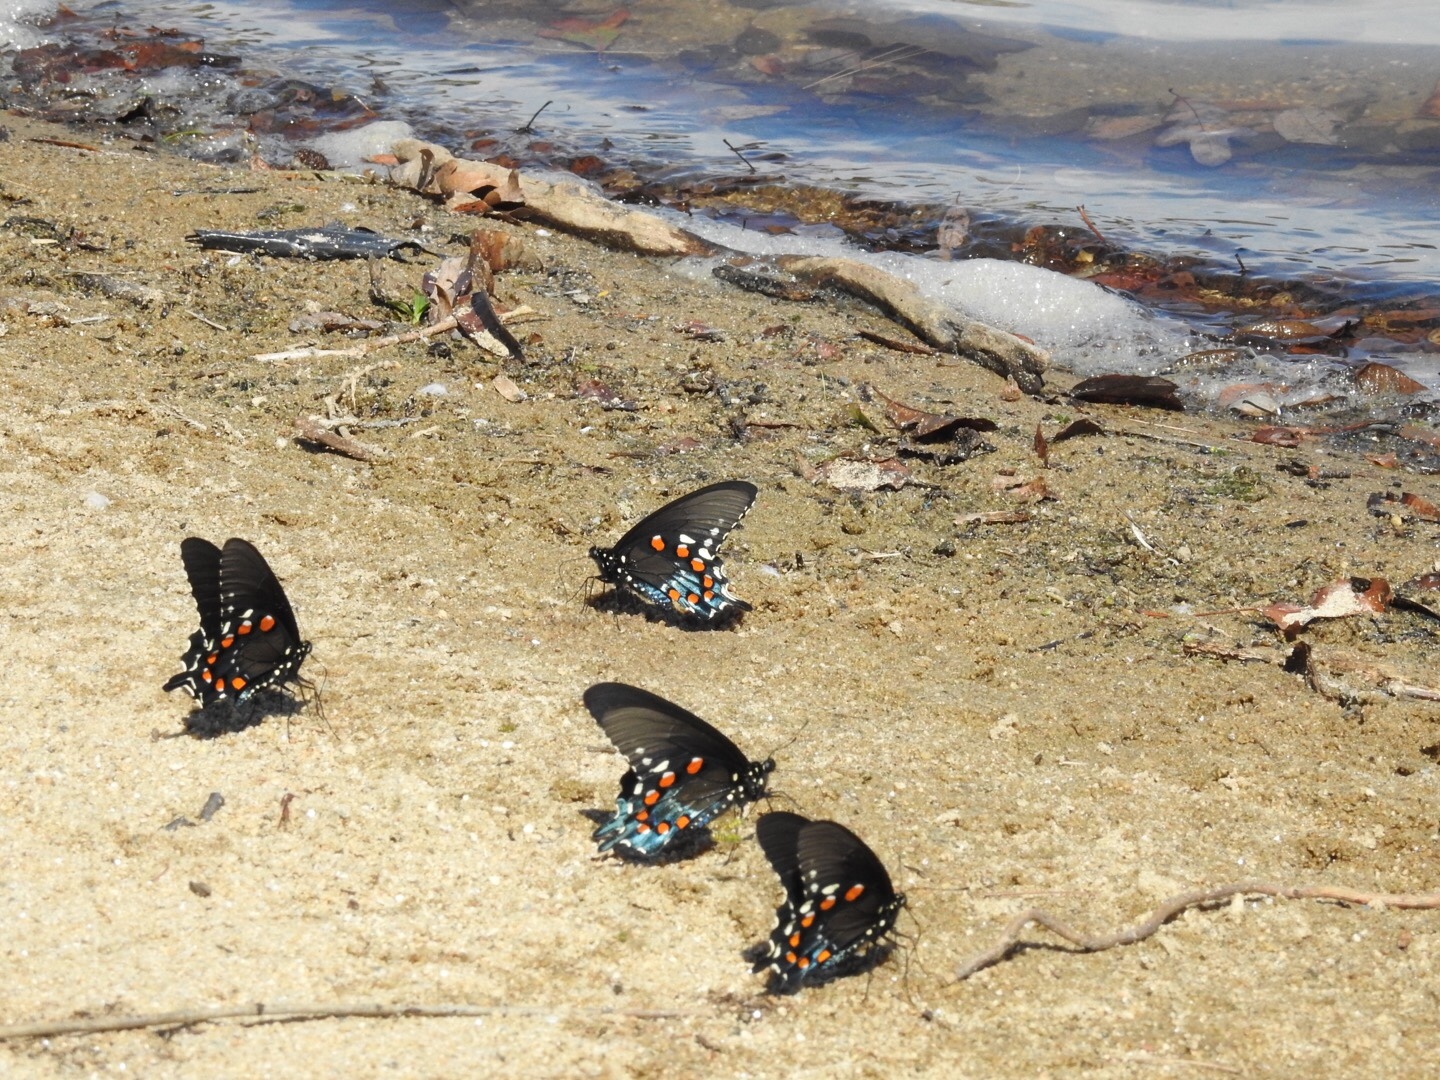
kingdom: Animalia
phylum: Arthropoda
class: Insecta
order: Lepidoptera
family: Papilionidae
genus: Battus
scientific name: Battus philenor
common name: Pipevine swallowtail
